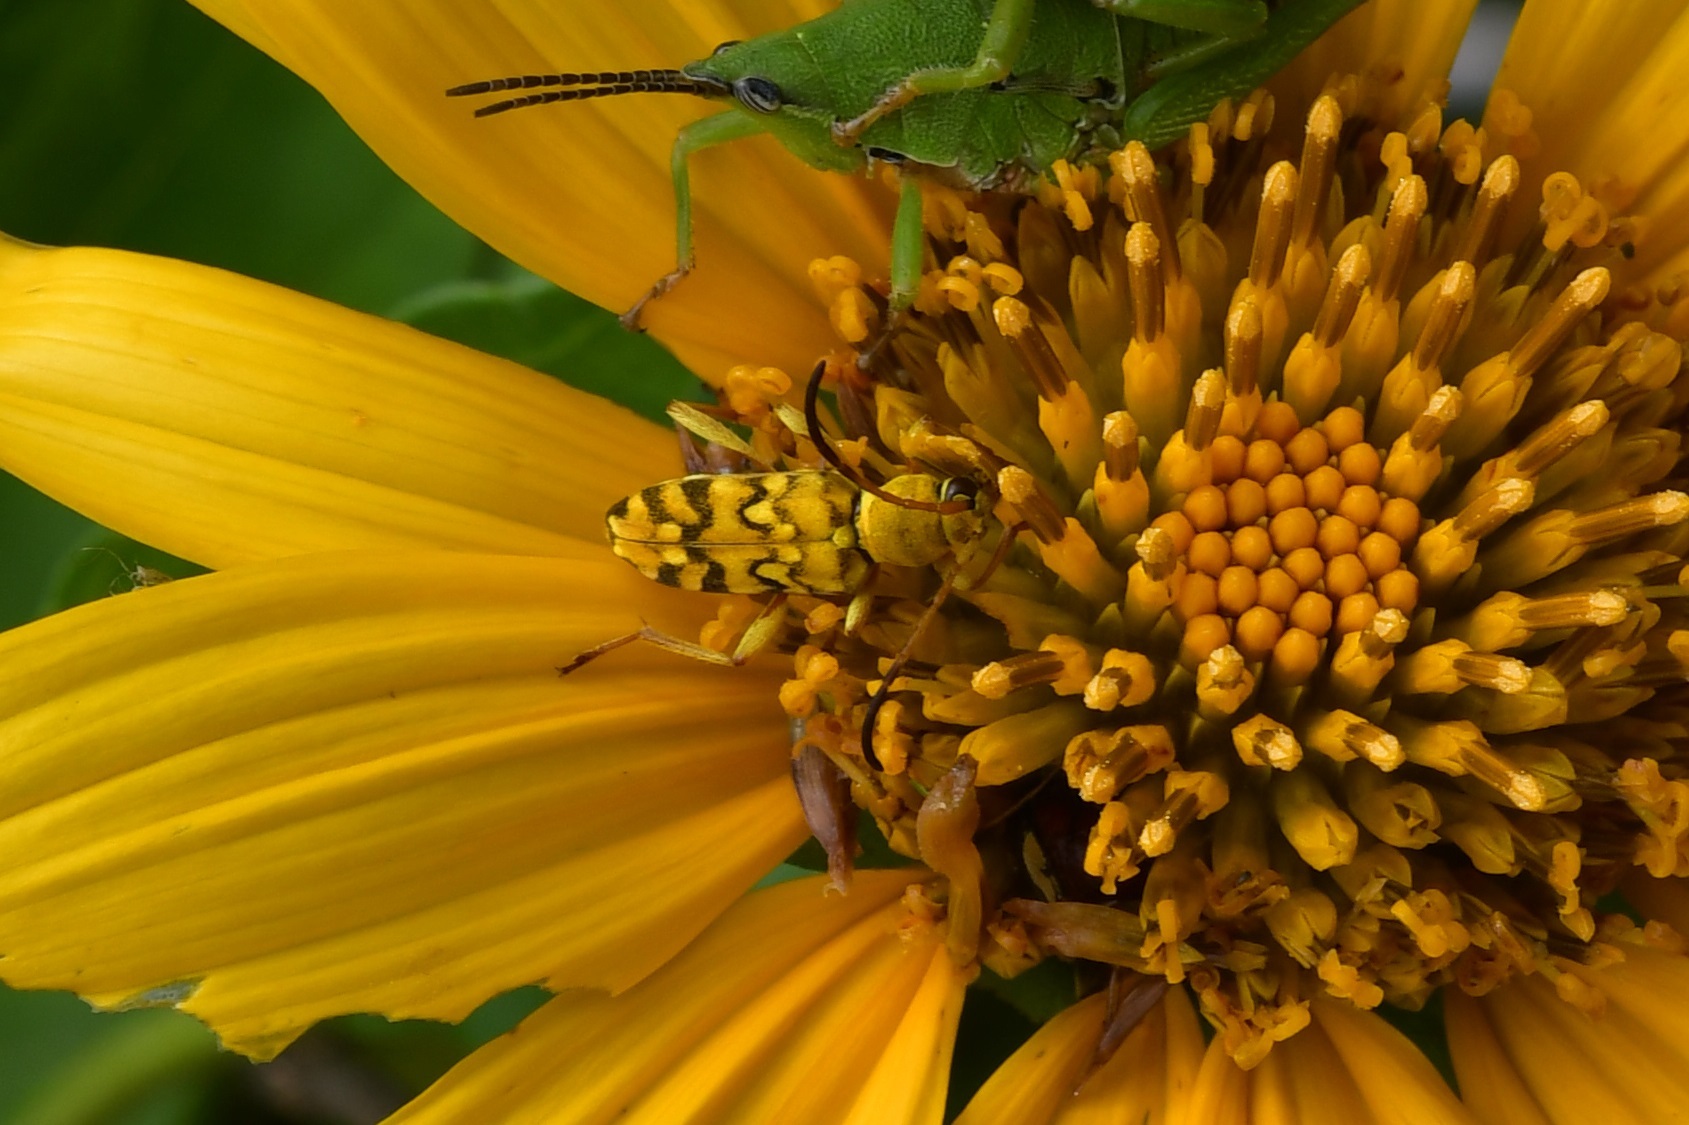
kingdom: Animalia
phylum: Arthropoda
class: Insecta
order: Coleoptera
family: Cerambycidae
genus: Ochraethes
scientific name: Ochraethes pollinosus
